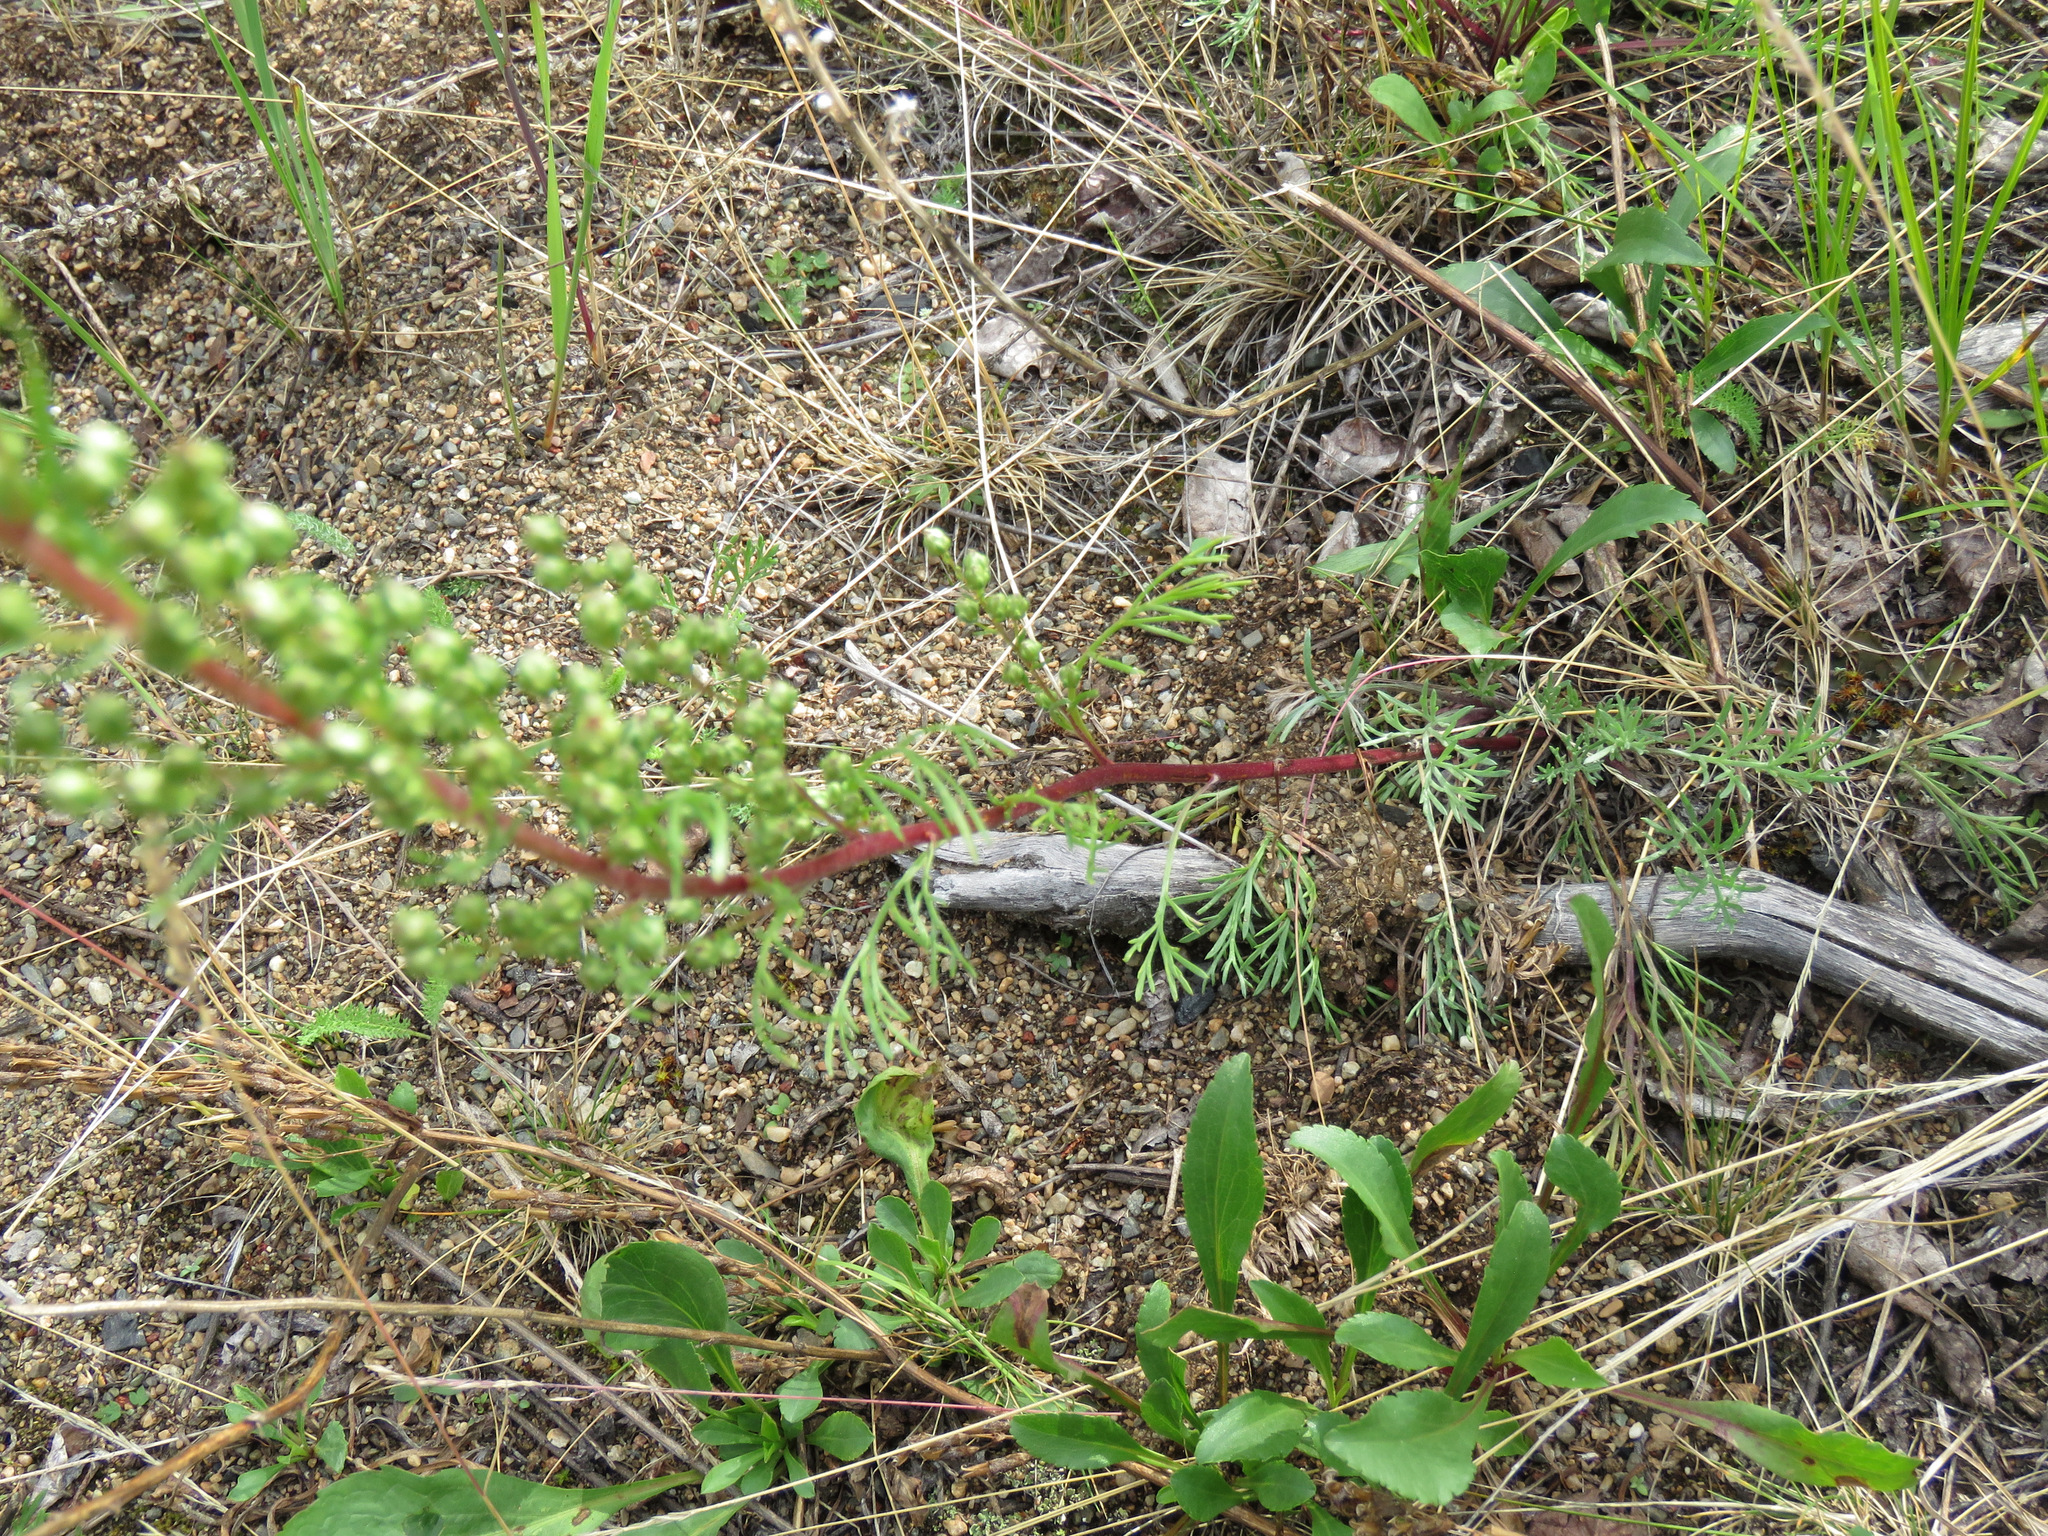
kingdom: Plantae
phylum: Tracheophyta
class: Magnoliopsida
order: Asterales
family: Asteraceae
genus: Artemisia
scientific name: Artemisia campestris
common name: Field wormwood
